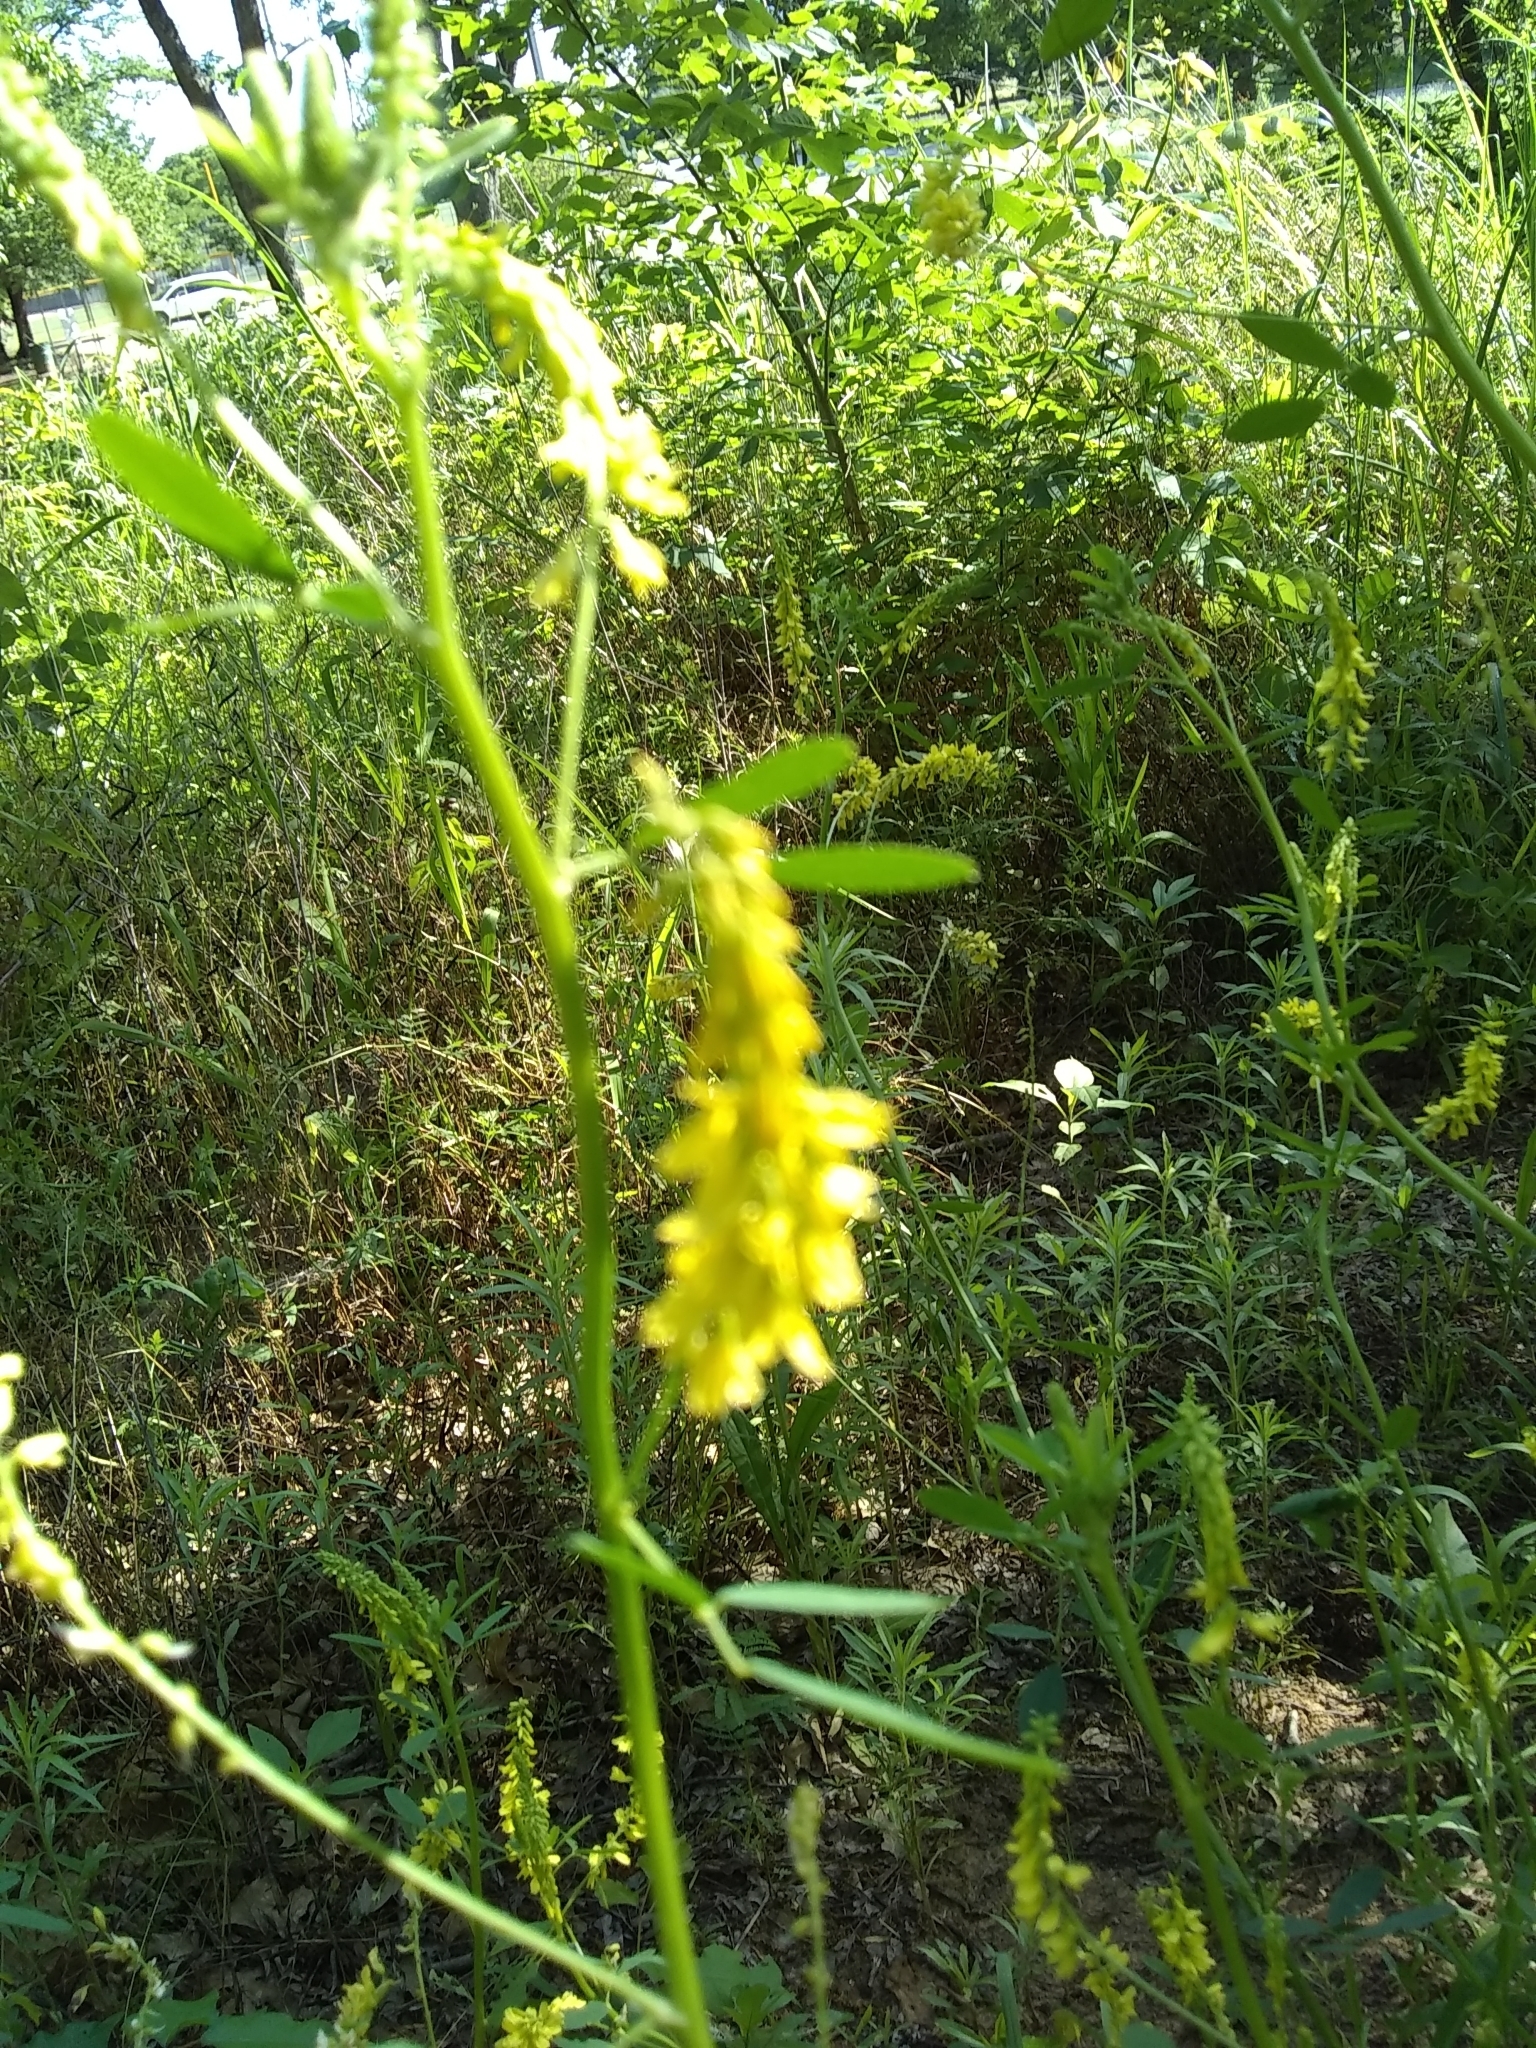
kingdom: Plantae
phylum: Tracheophyta
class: Magnoliopsida
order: Fabales
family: Fabaceae
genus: Melilotus
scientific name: Melilotus officinalis
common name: Sweetclover
